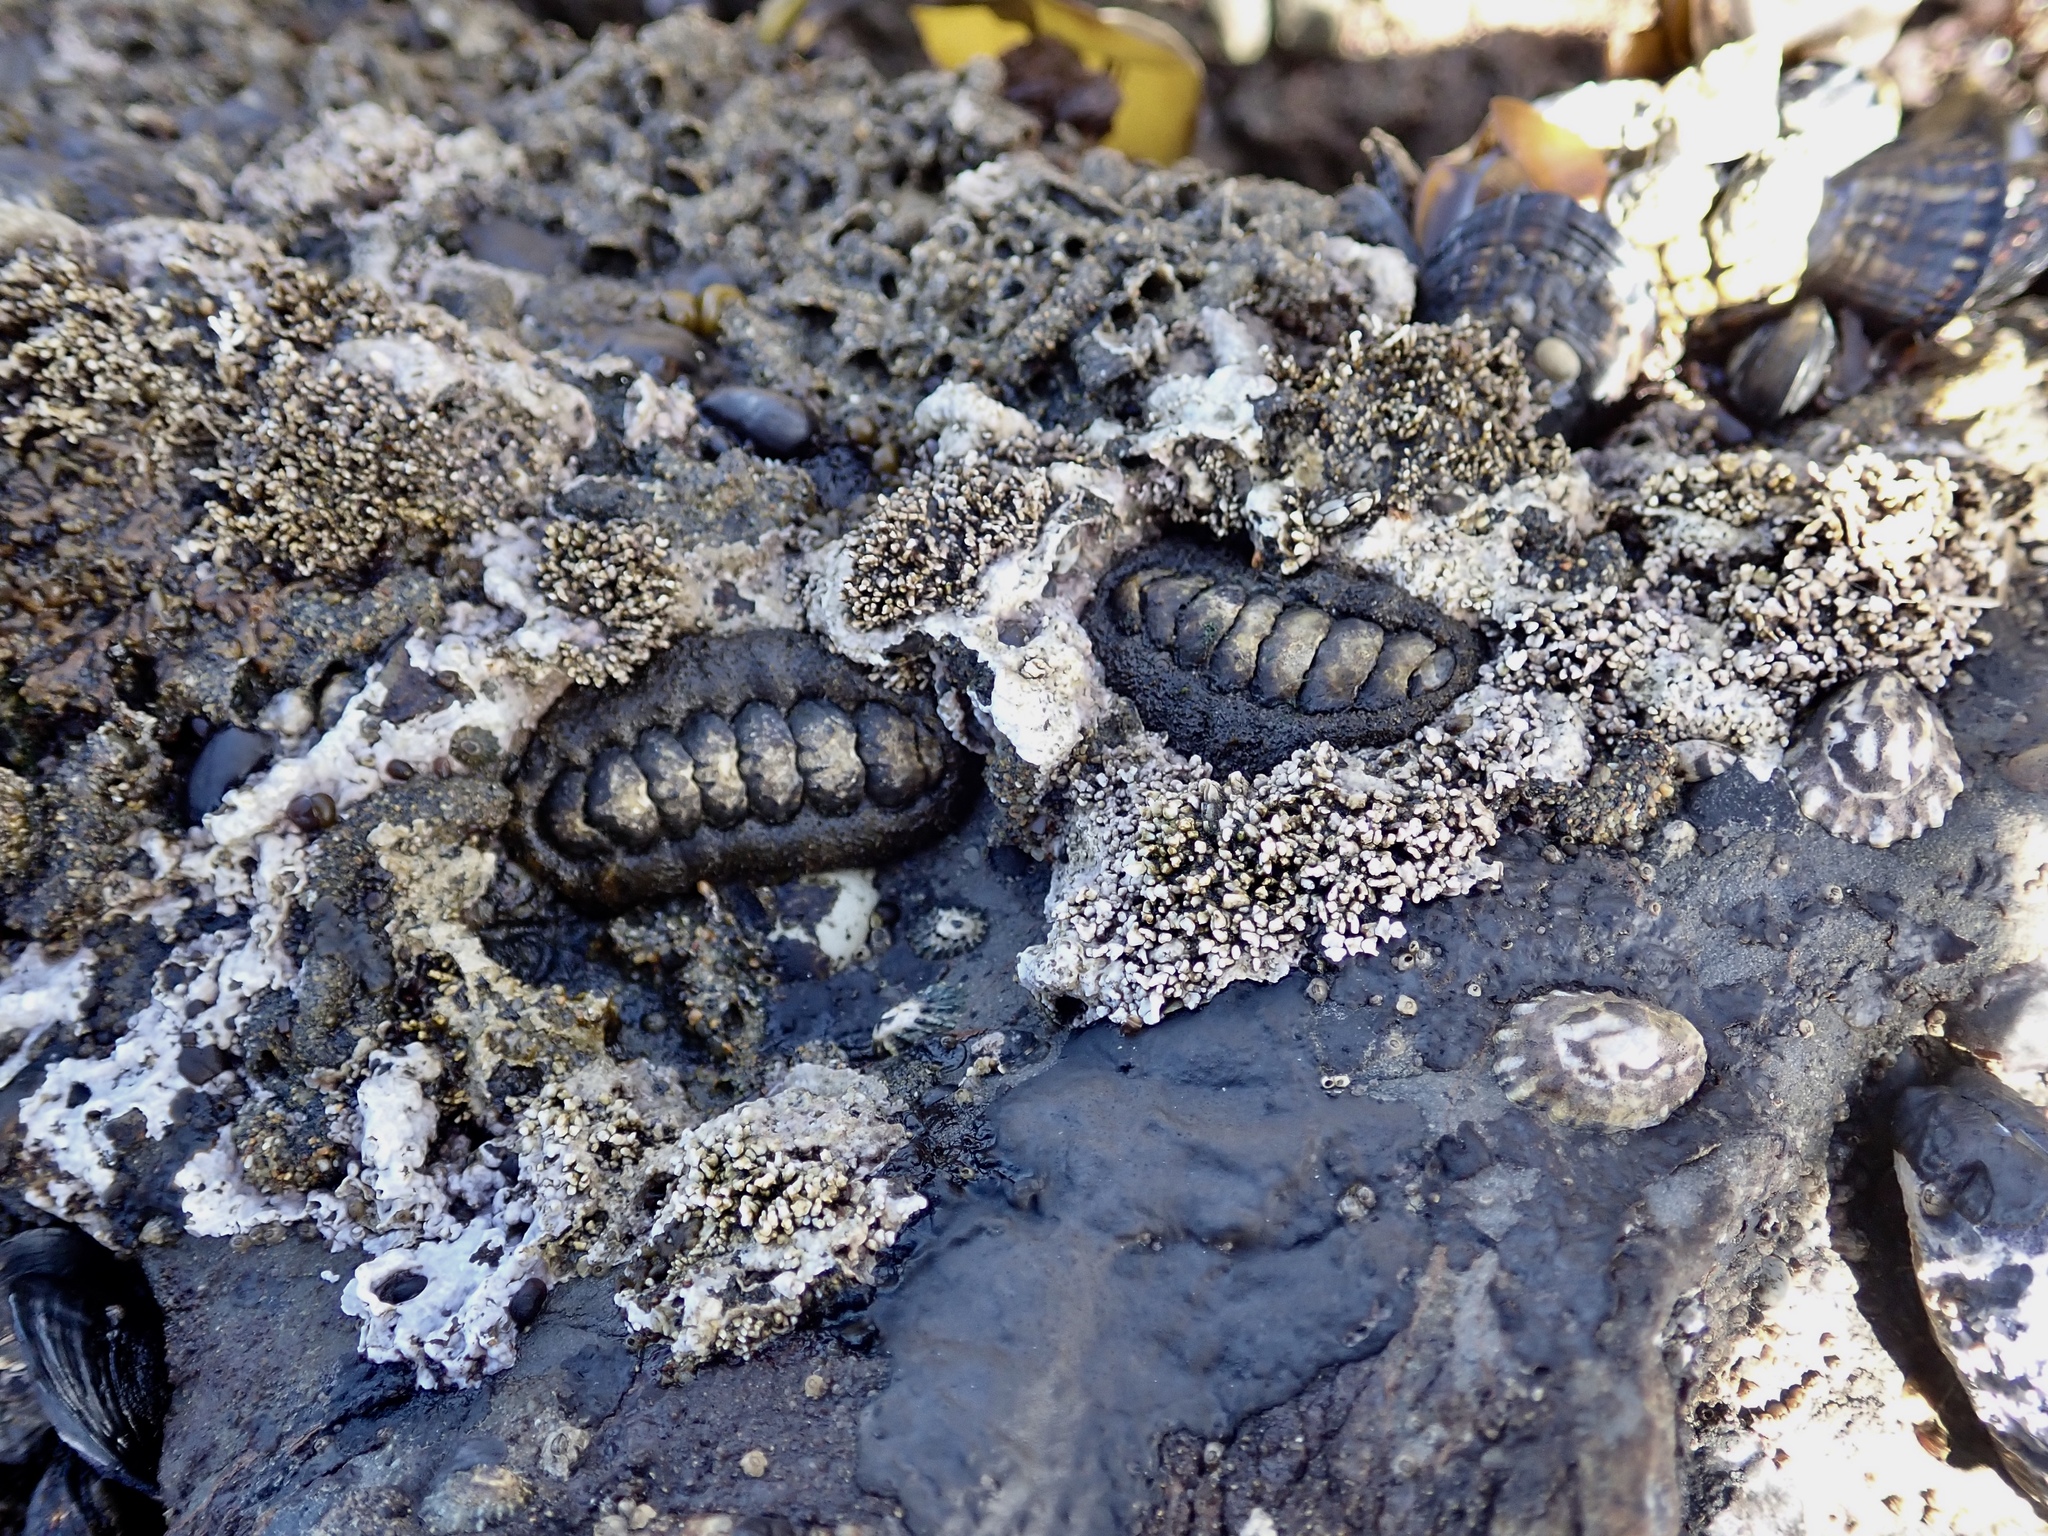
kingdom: Animalia
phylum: Mollusca
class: Polyplacophora
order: Chitonida
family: Tonicellidae
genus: Nuttallina
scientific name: Nuttallina californica
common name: California nuttall chiton
